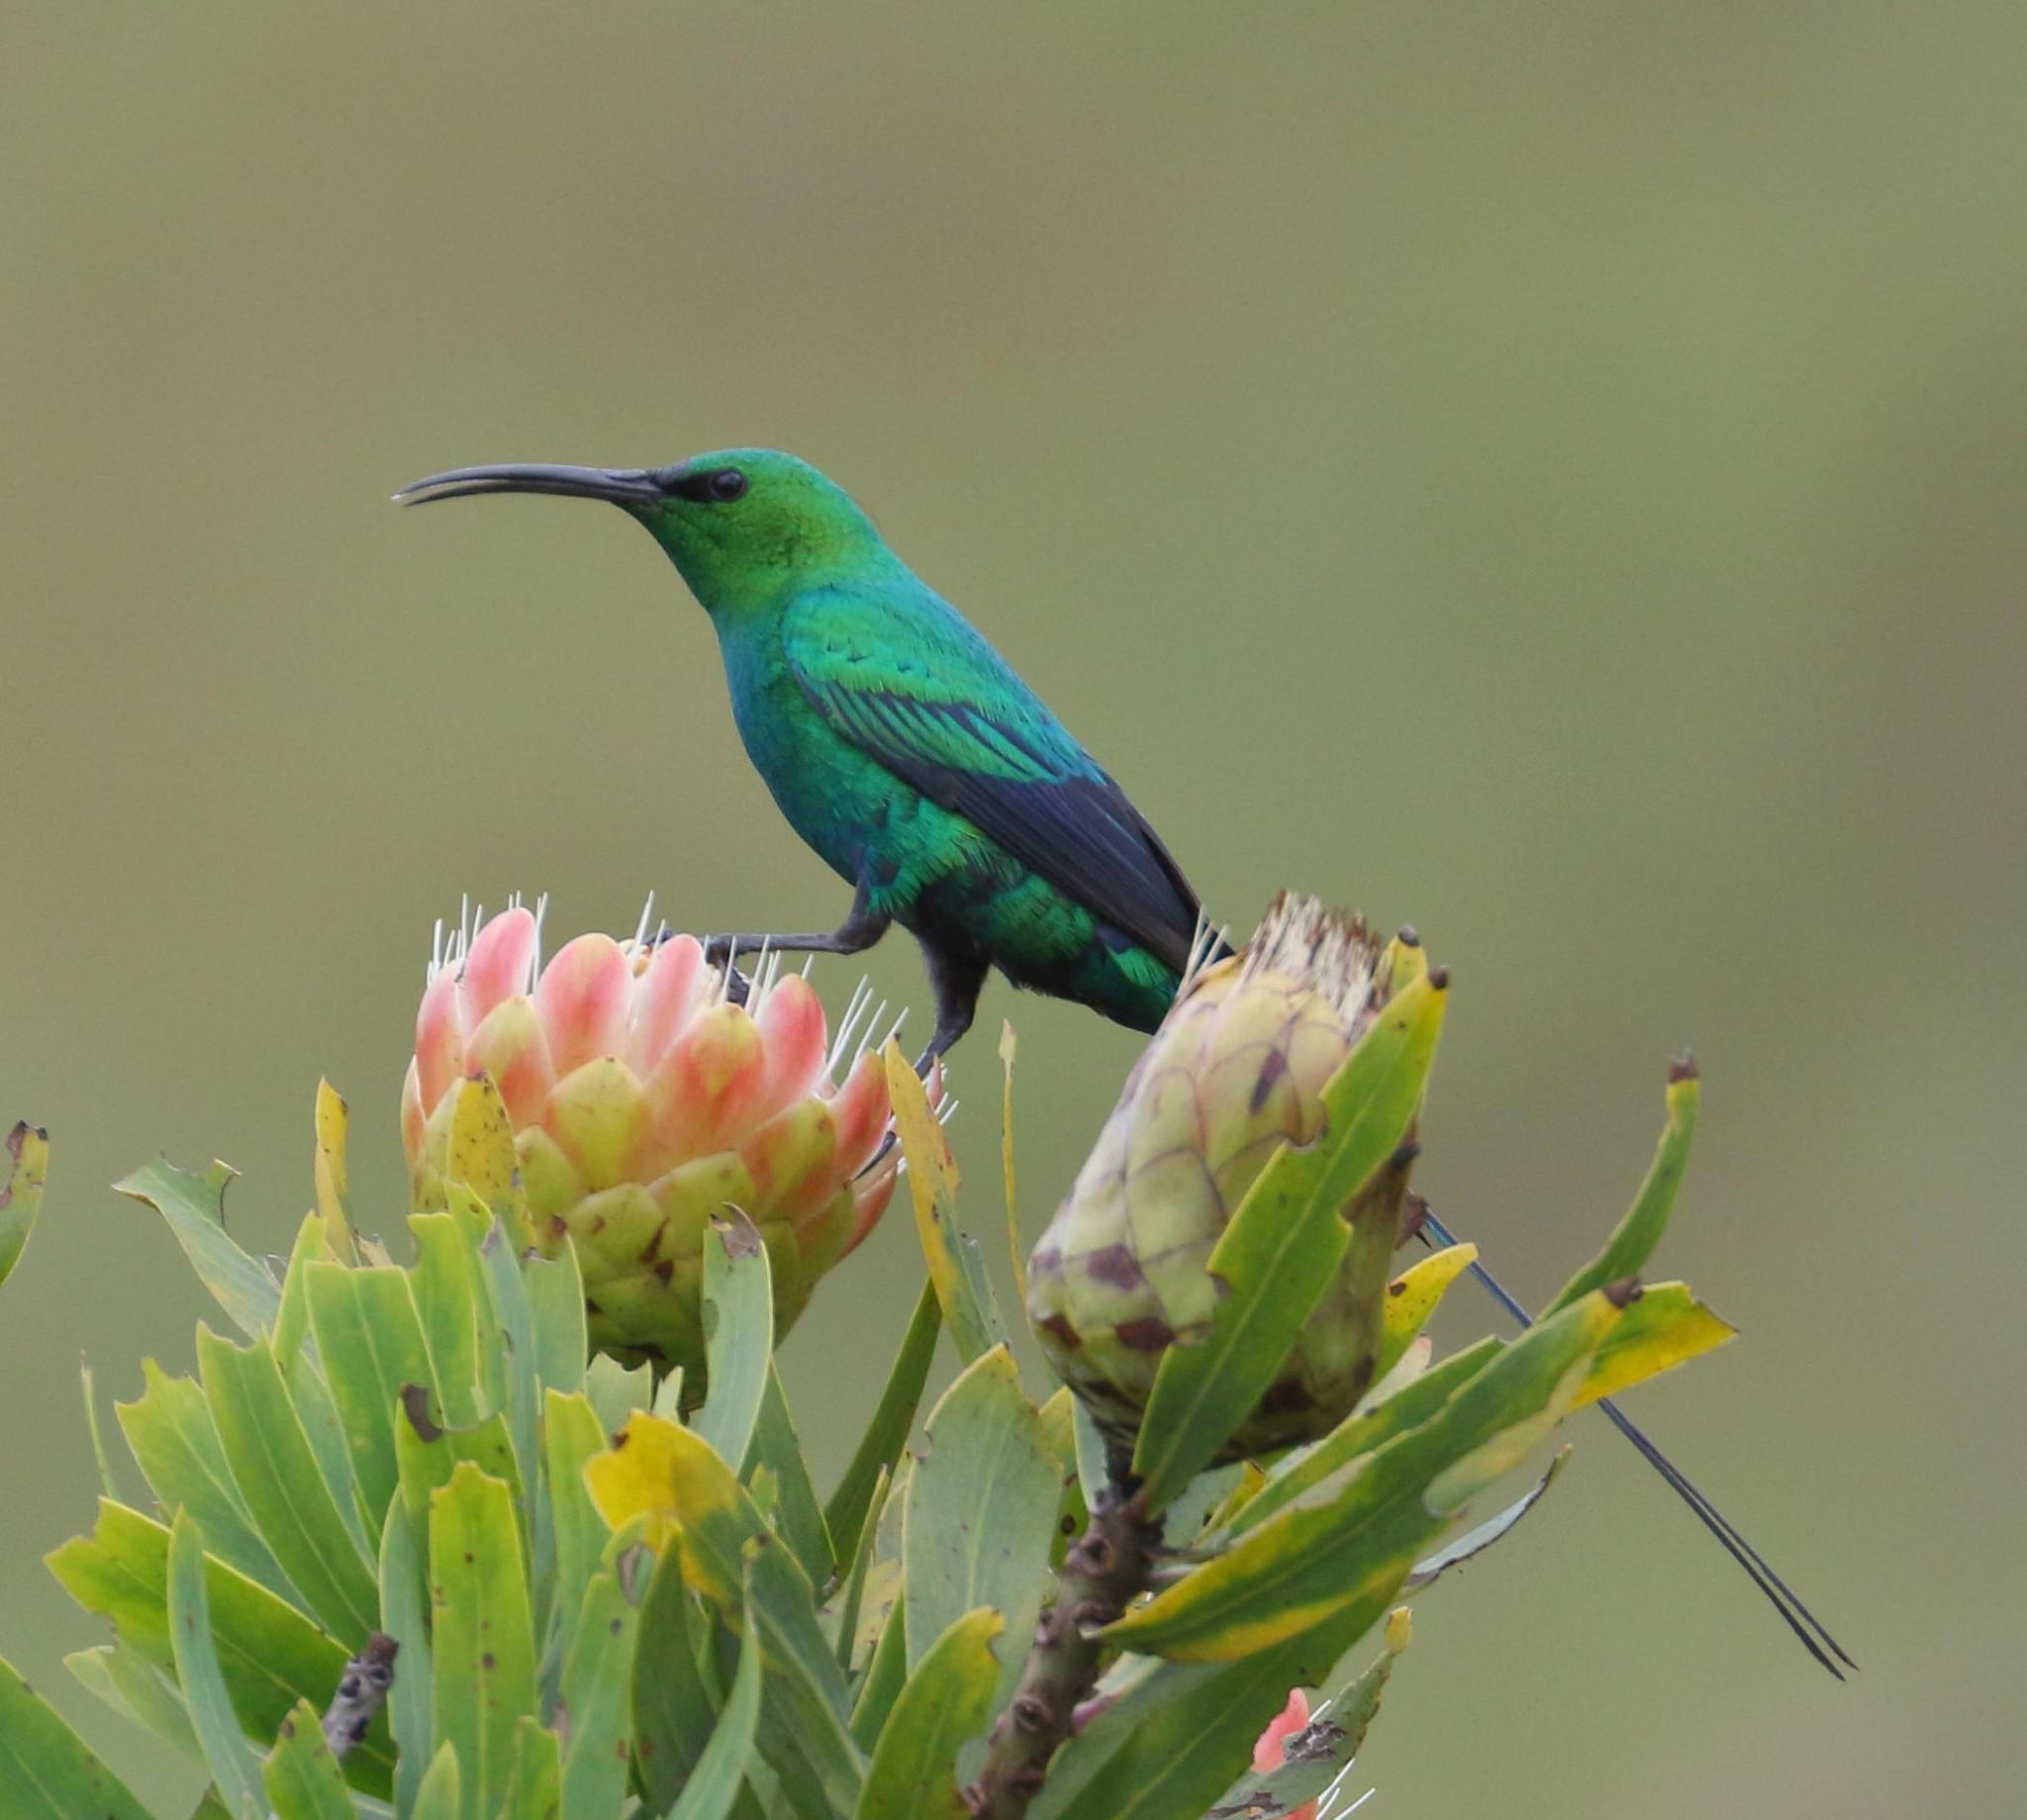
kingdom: Animalia
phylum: Chordata
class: Aves
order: Passeriformes
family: Nectariniidae
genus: Nectarinia
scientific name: Nectarinia famosa
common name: Malachite sunbird
